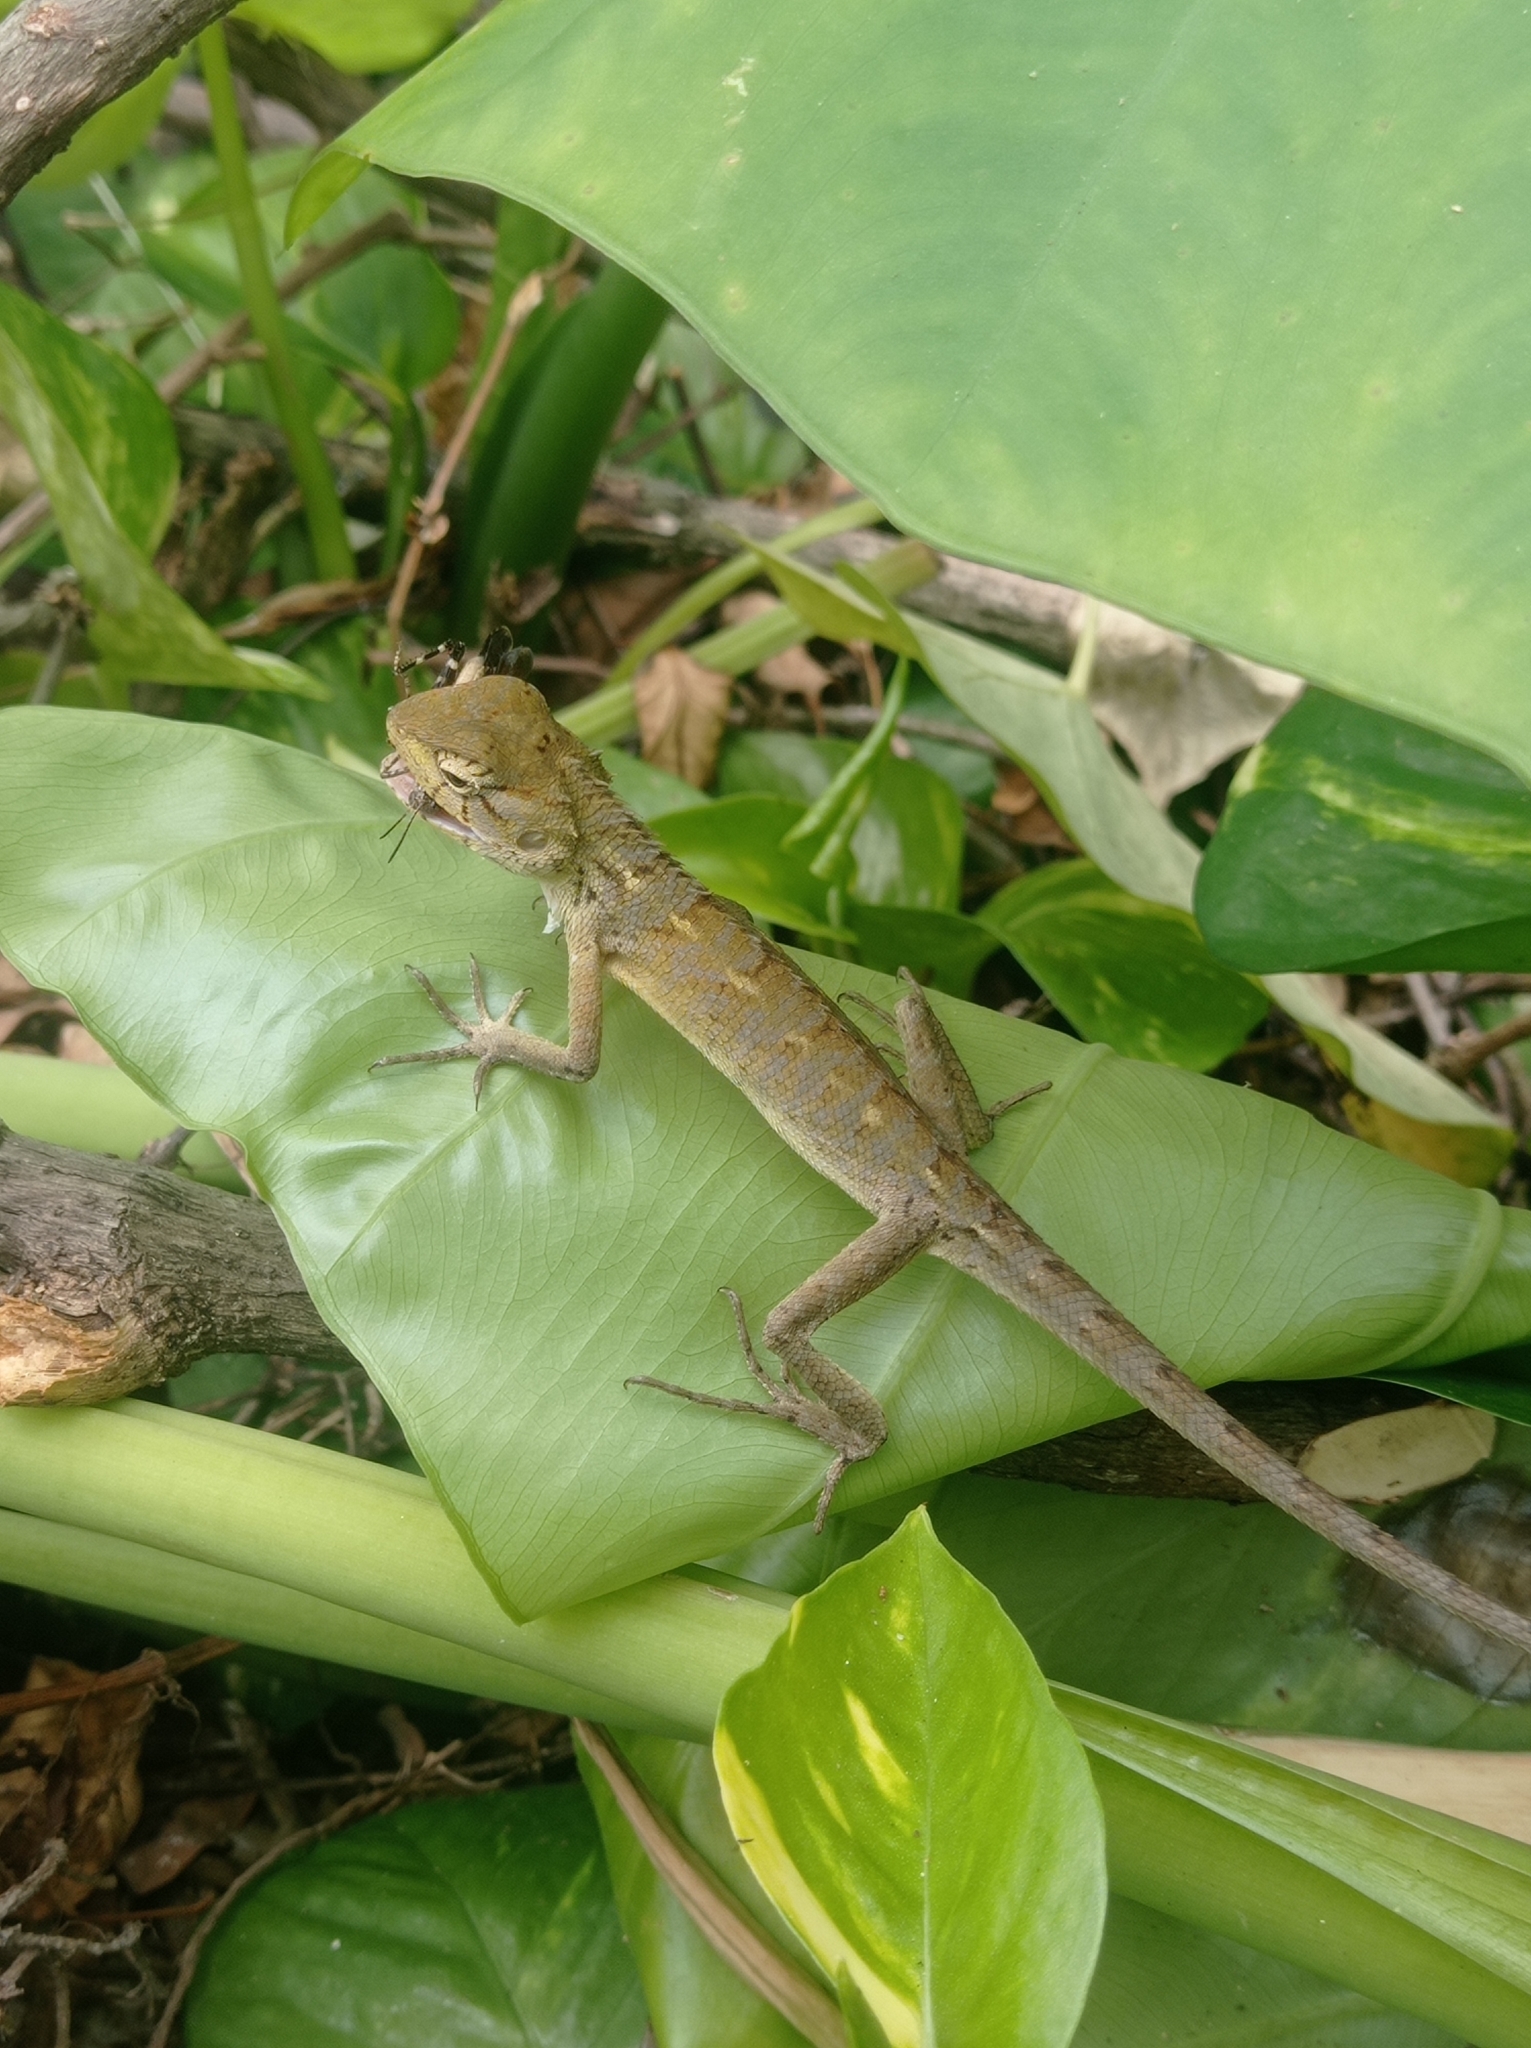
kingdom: Animalia
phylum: Chordata
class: Squamata
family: Agamidae
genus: Calotes
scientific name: Calotes versicolor
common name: Oriental garden lizard
